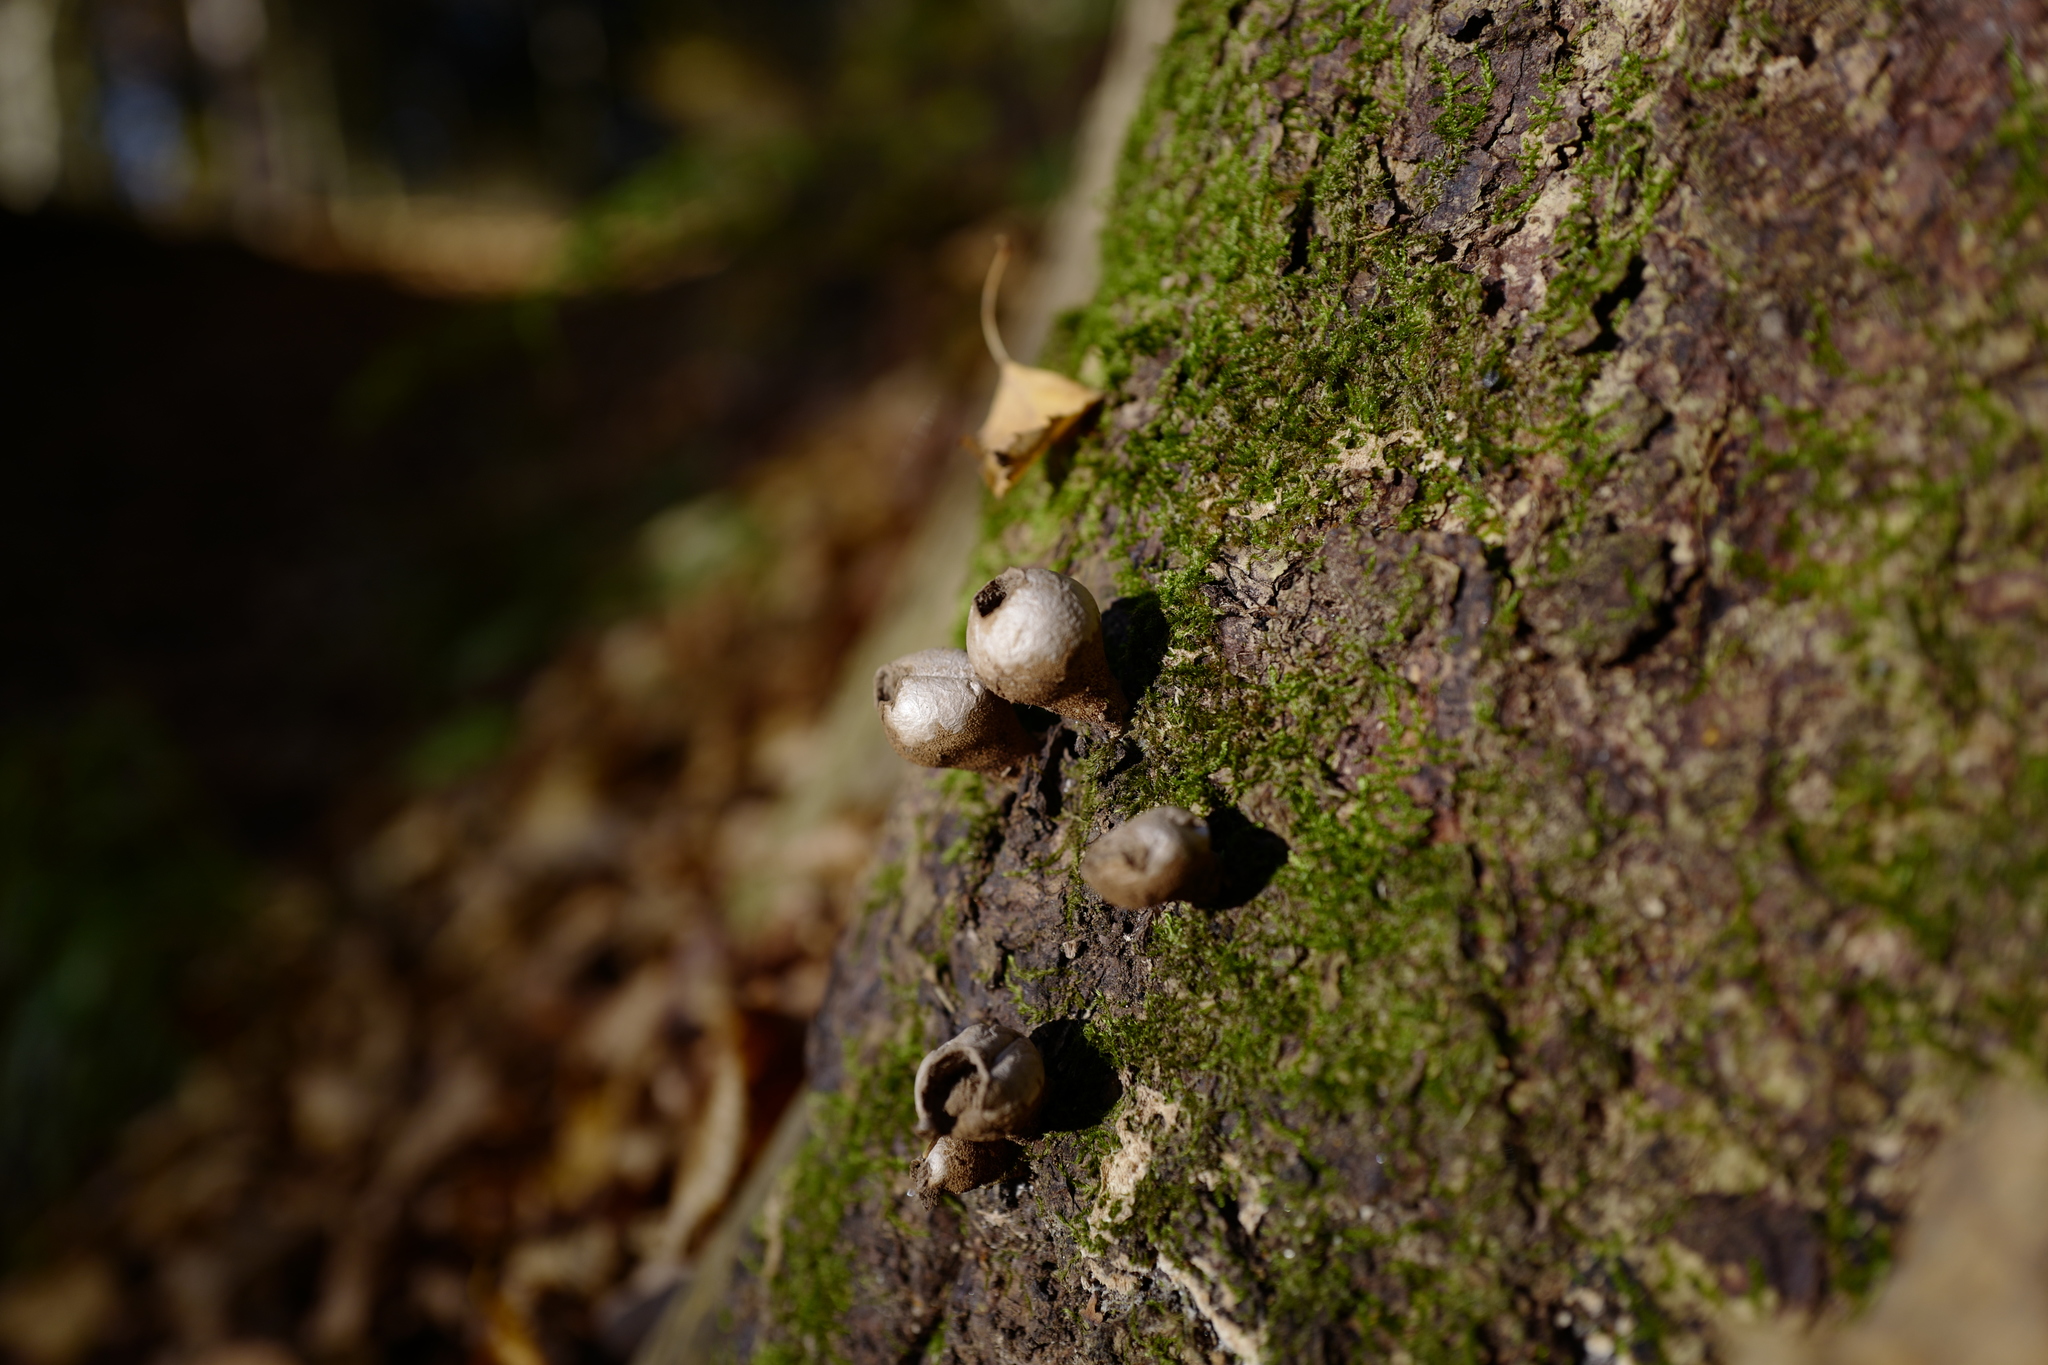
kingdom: Fungi
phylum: Basidiomycota
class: Agaricomycetes
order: Agaricales
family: Lycoperdaceae
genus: Apioperdon
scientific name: Apioperdon pyriforme
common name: Pear-shaped puffball
